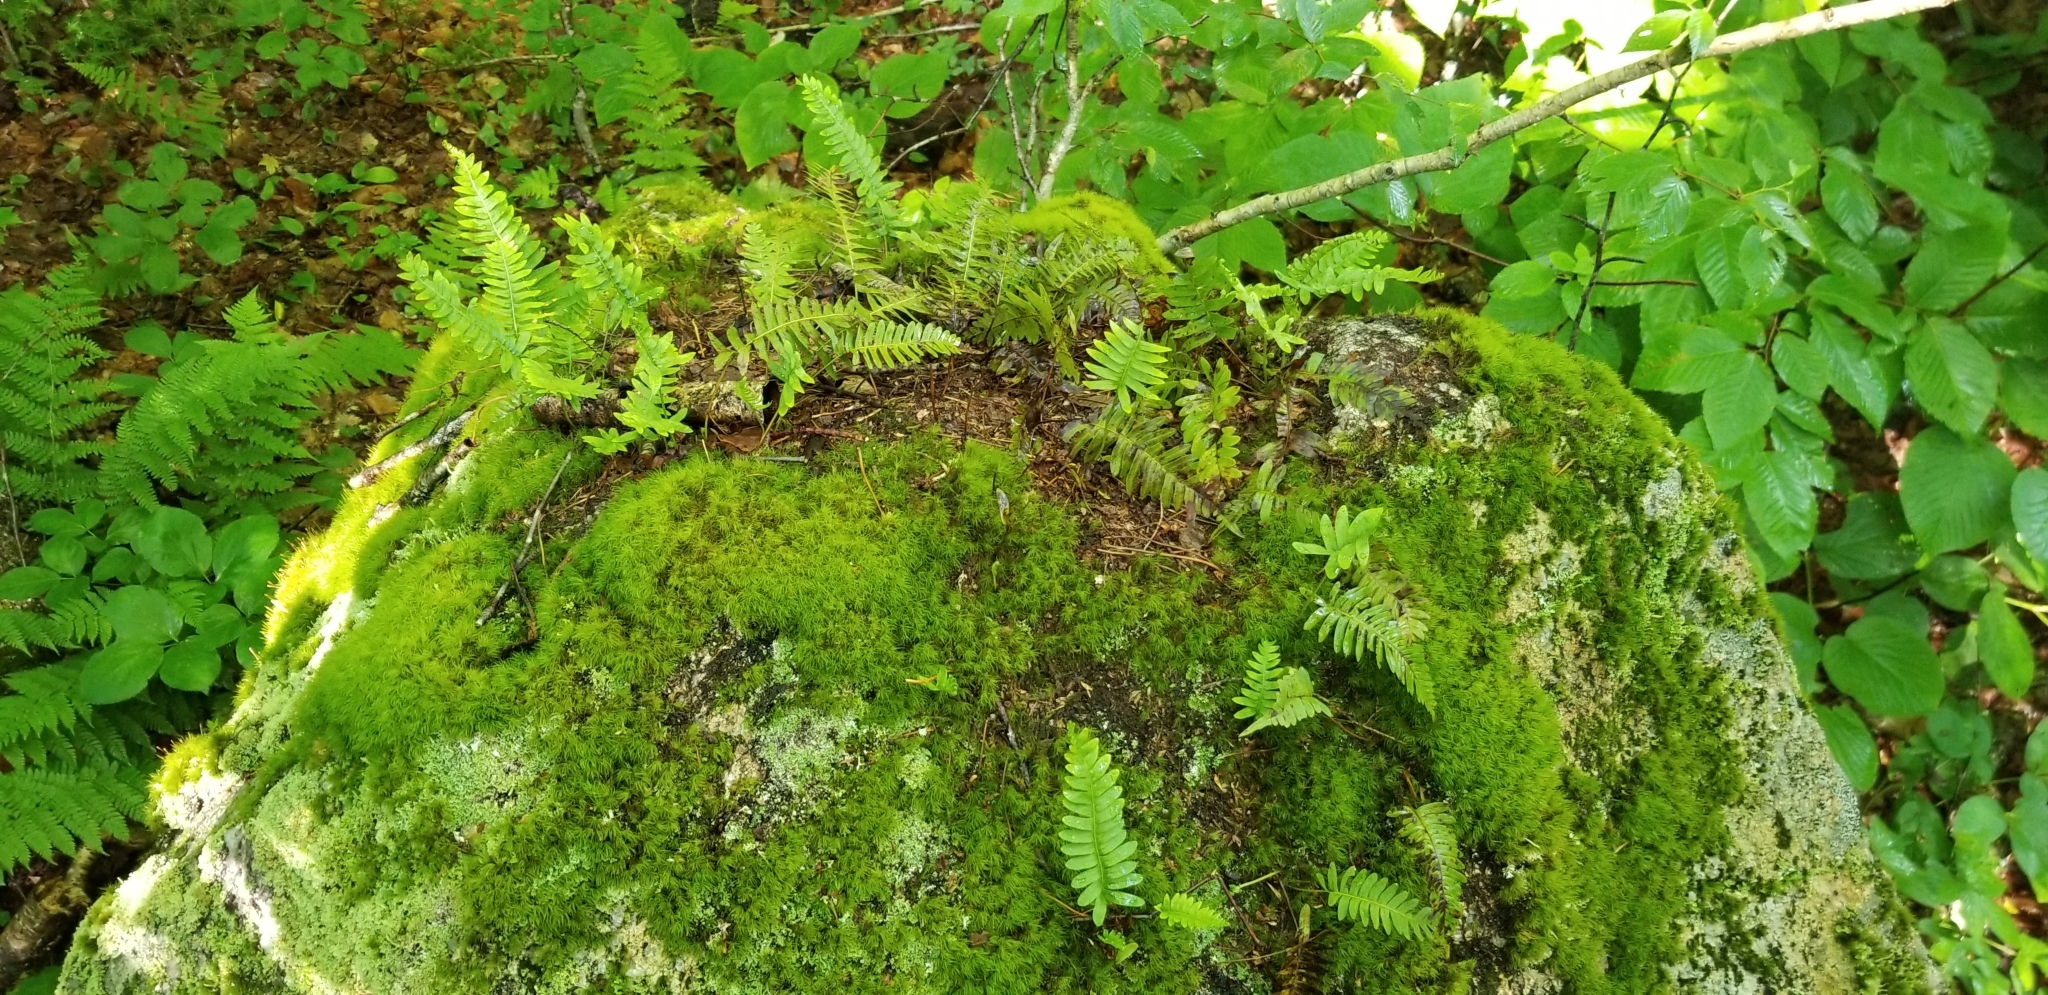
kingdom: Plantae
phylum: Tracheophyta
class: Polypodiopsida
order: Polypodiales
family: Polypodiaceae
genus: Polypodium
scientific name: Polypodium virginianum
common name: American wall fern
